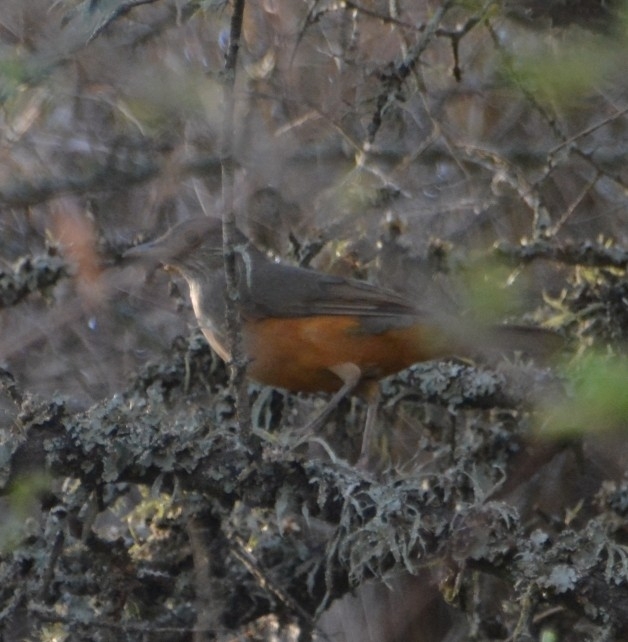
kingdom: Animalia
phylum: Chordata
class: Aves
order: Passeriformes
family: Turdidae
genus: Turdus
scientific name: Turdus rufiventris
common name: Rufous-bellied thrush
